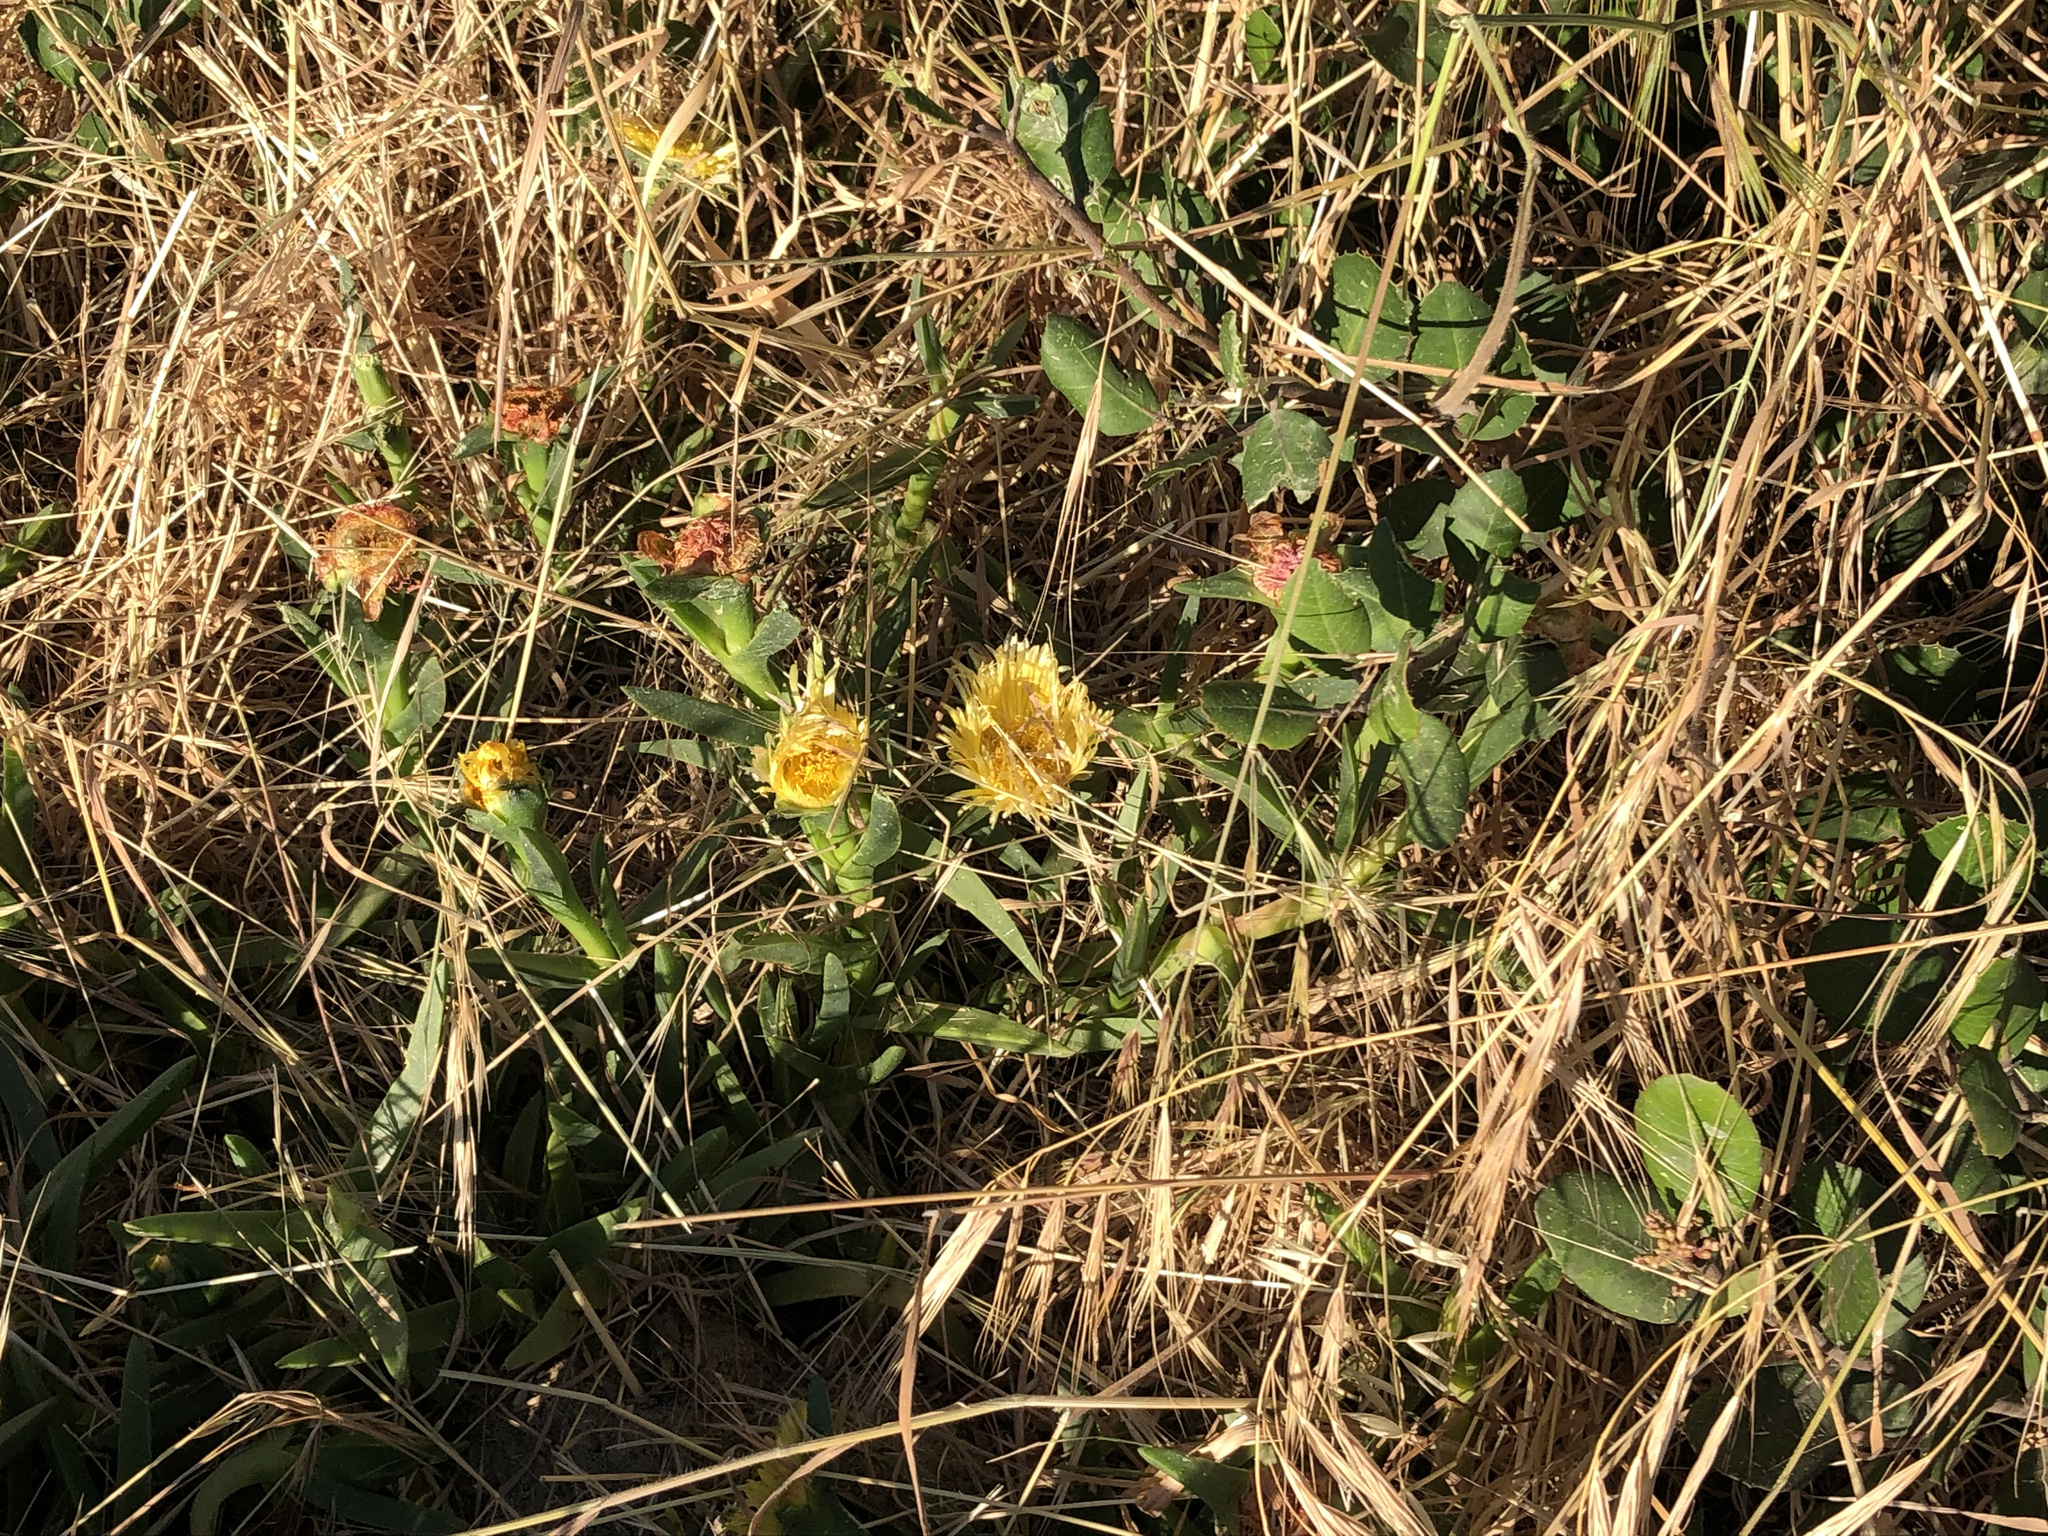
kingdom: Plantae
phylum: Tracheophyta
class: Magnoliopsida
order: Caryophyllales
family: Aizoaceae
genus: Carpobrotus
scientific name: Carpobrotus edulis
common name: Hottentot-fig
